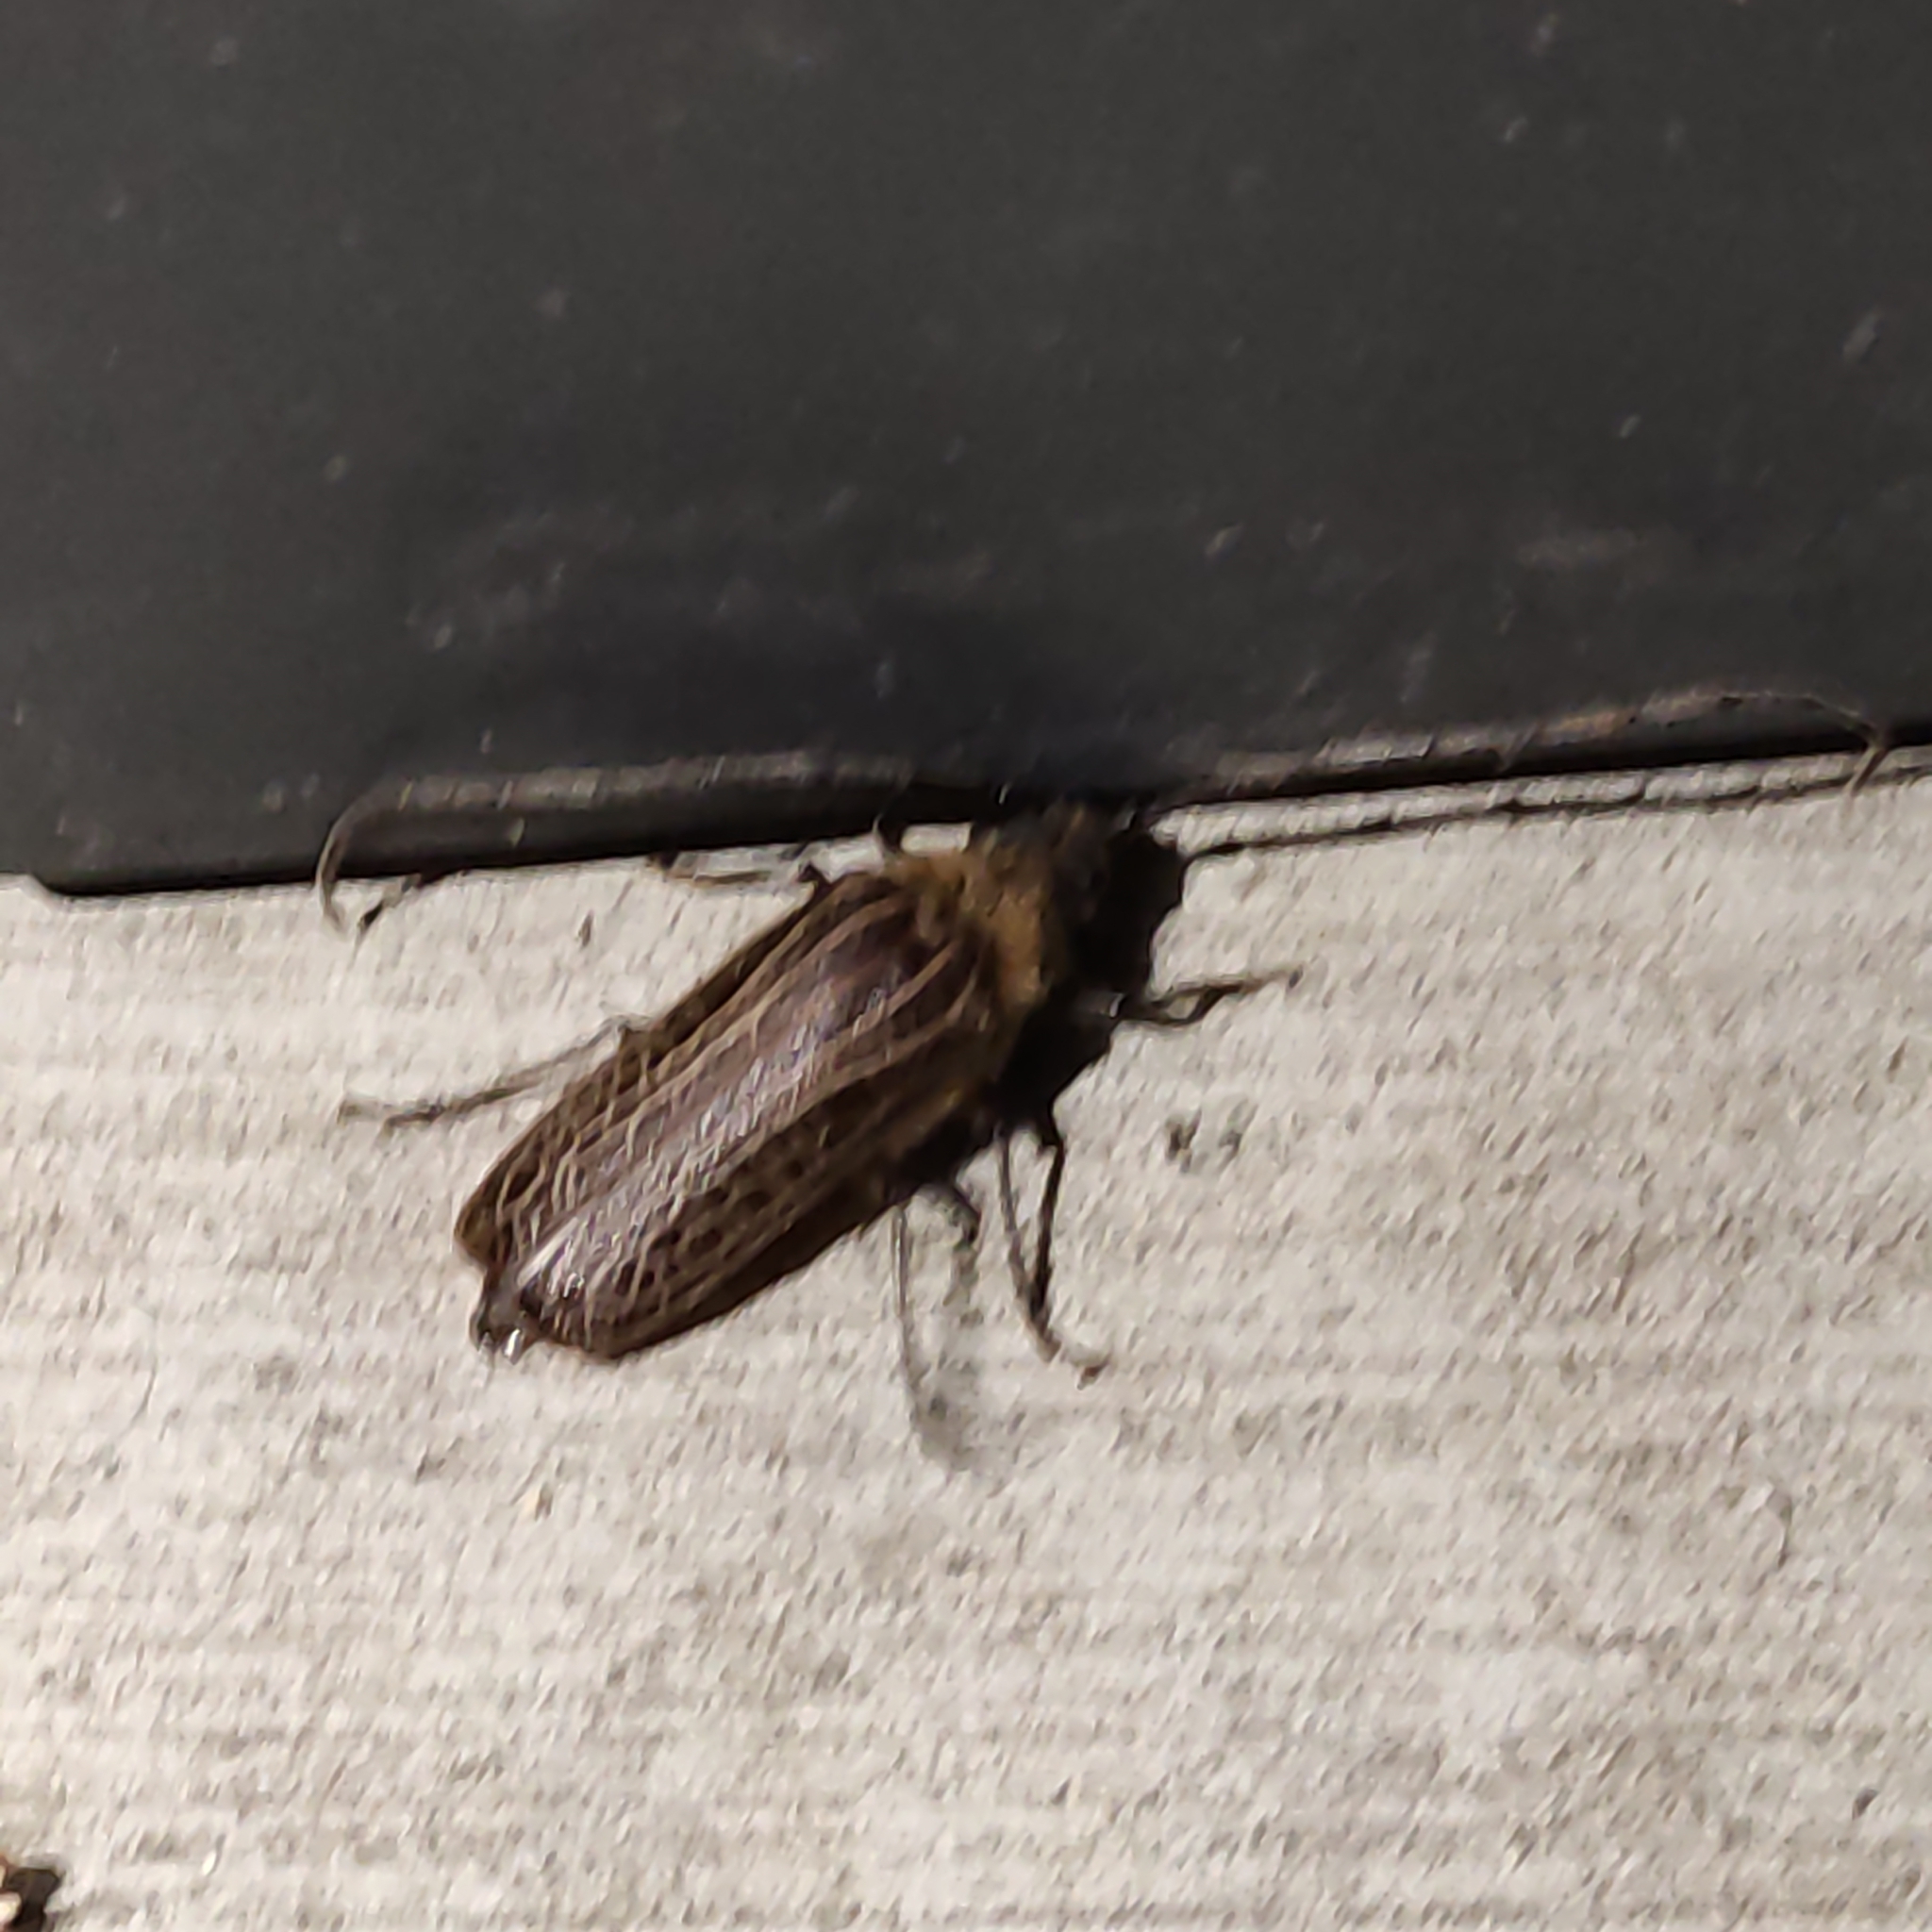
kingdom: Animalia
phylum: Arthropoda
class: Insecta
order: Coleoptera
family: Cerambycidae
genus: Prionoplus
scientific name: Prionoplus reticularis
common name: Huhu beetle
